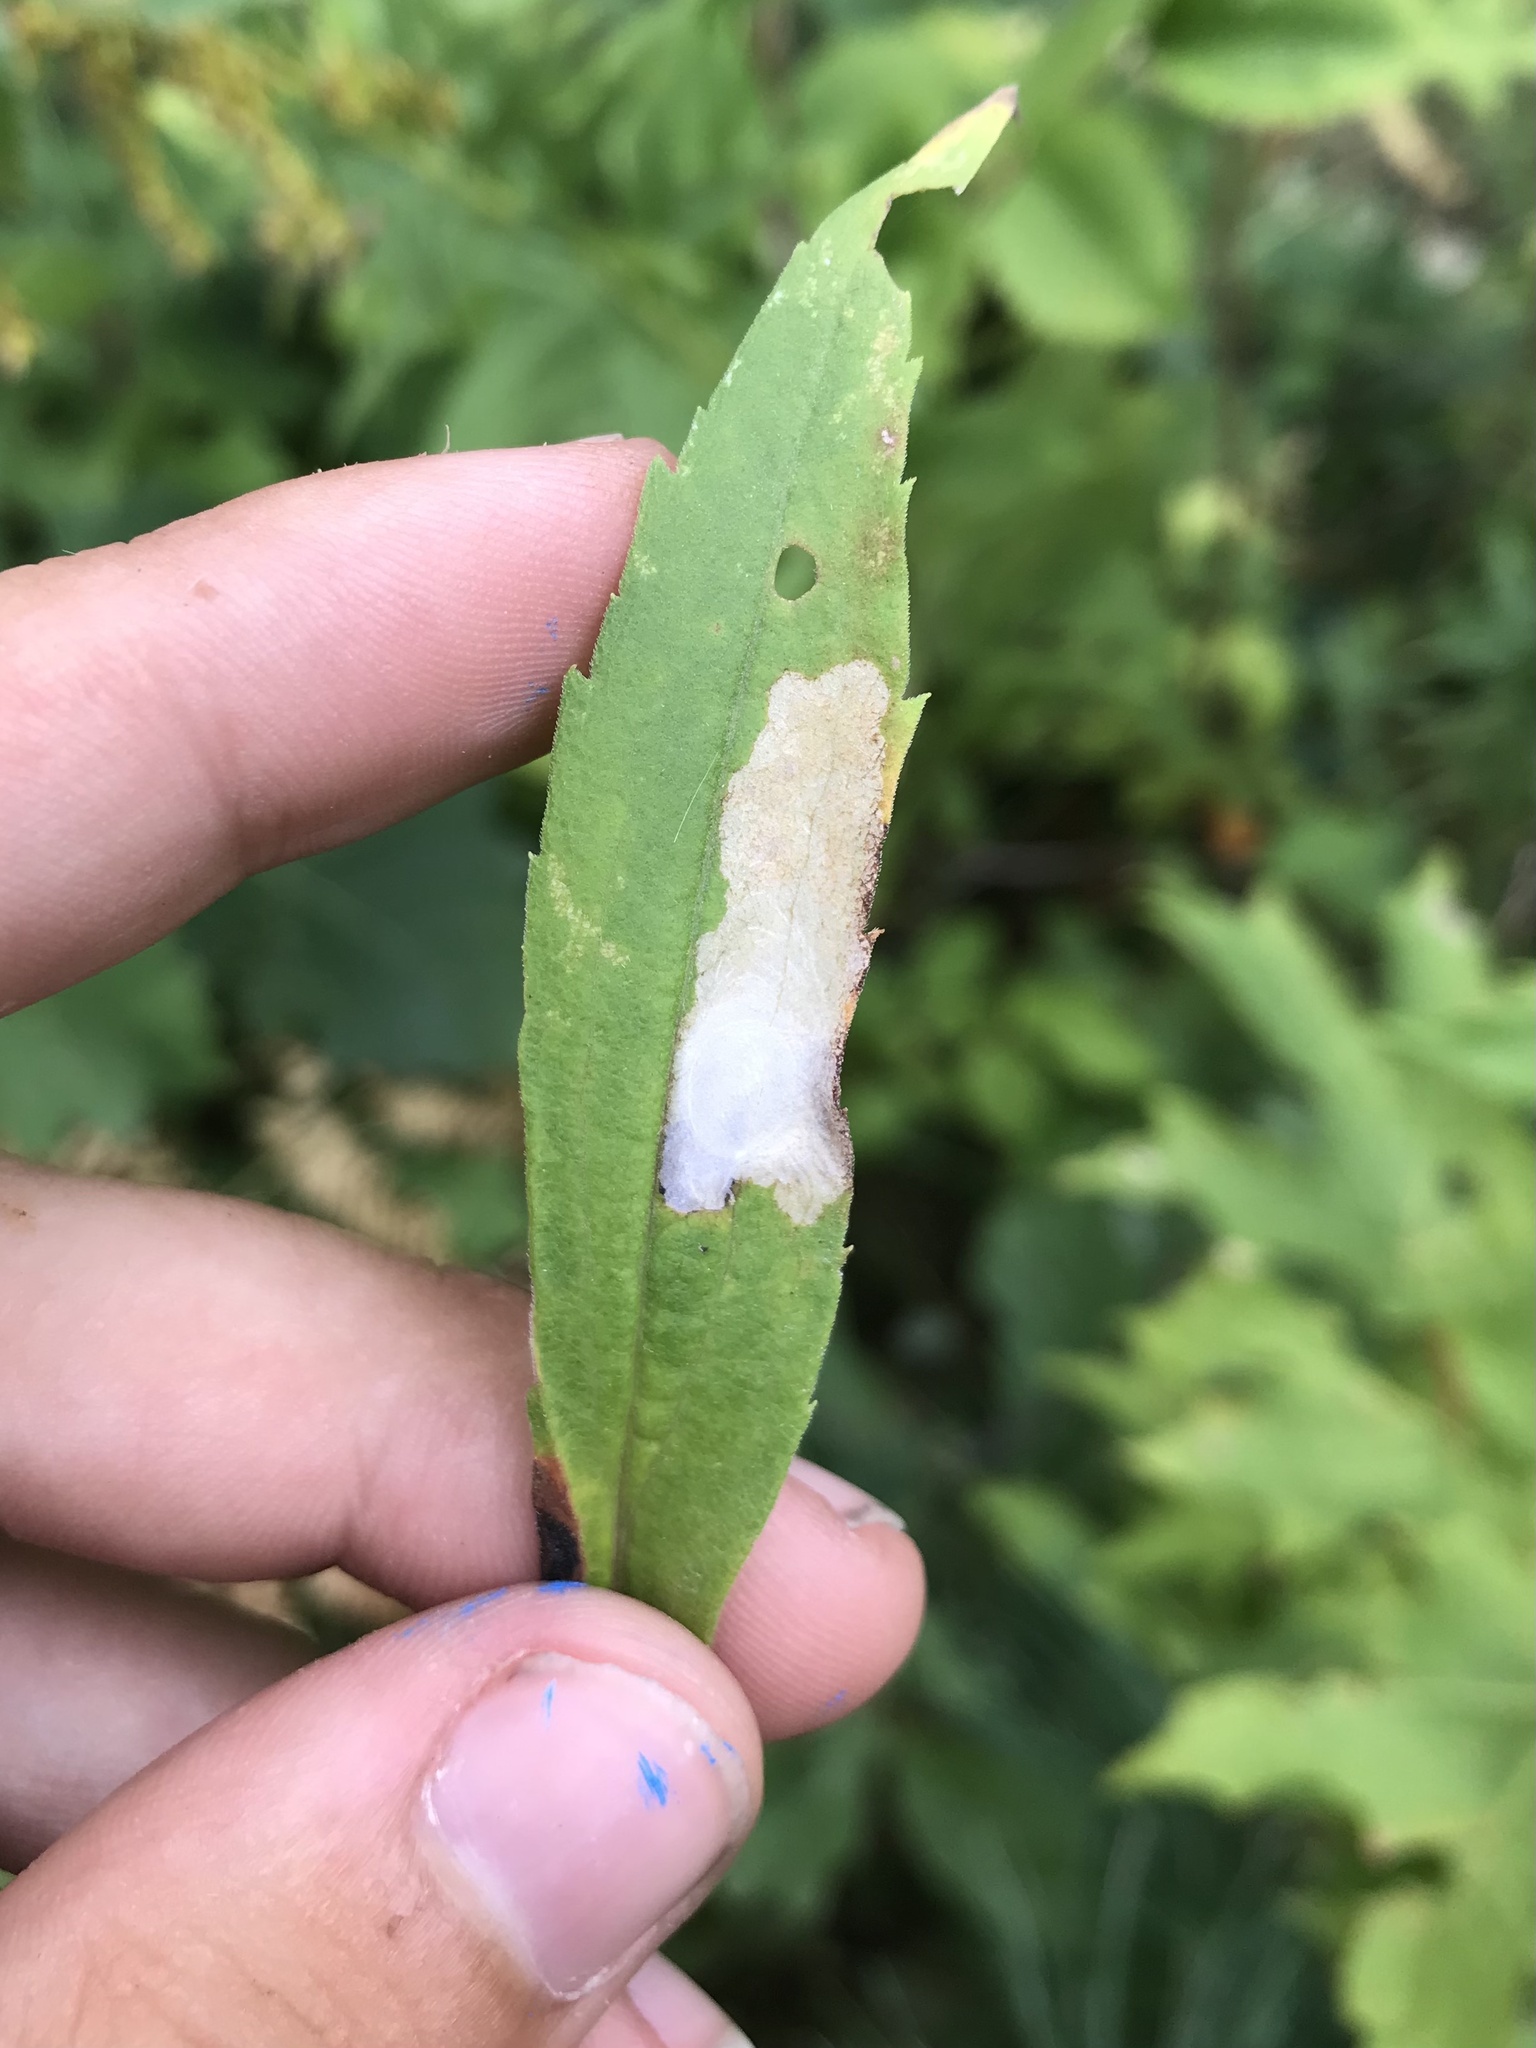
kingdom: Animalia
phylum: Arthropoda
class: Insecta
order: Lepidoptera
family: Tischeriidae
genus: Astrotischeria
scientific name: Astrotischeria solidagonifoliella
